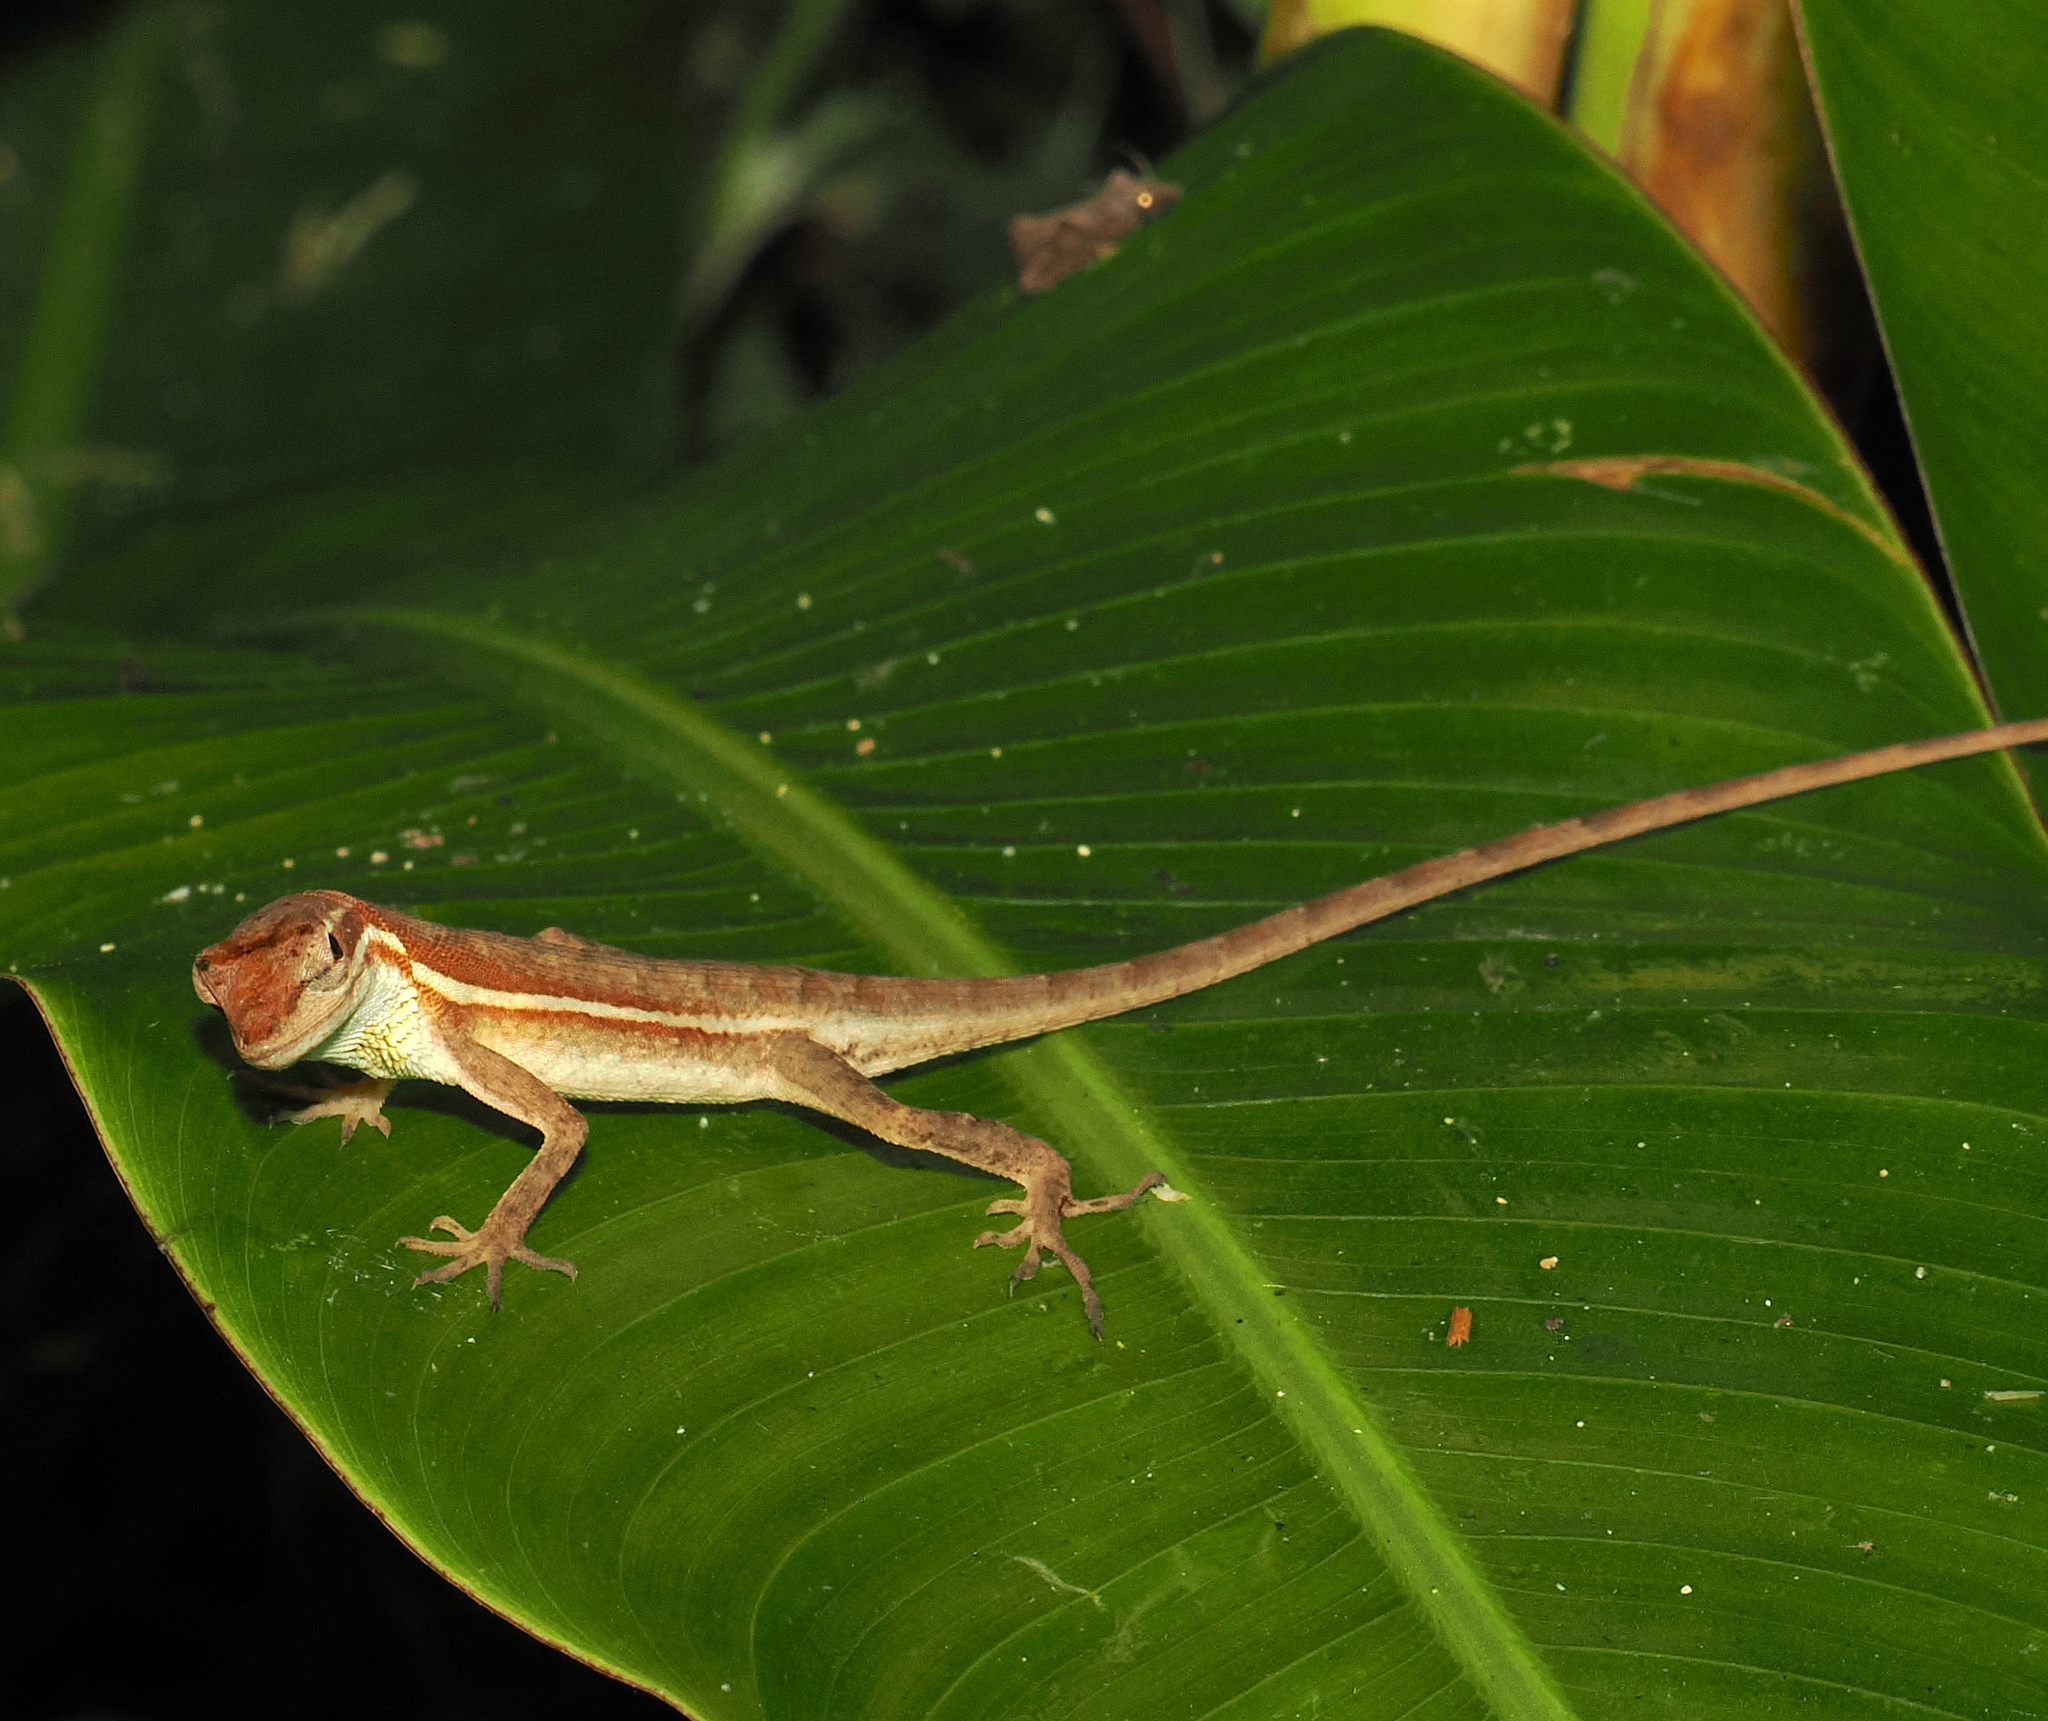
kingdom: Animalia
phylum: Chordata
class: Squamata
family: Dactyloidae
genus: Anolis
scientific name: Anolis auratus
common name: Grass anole
